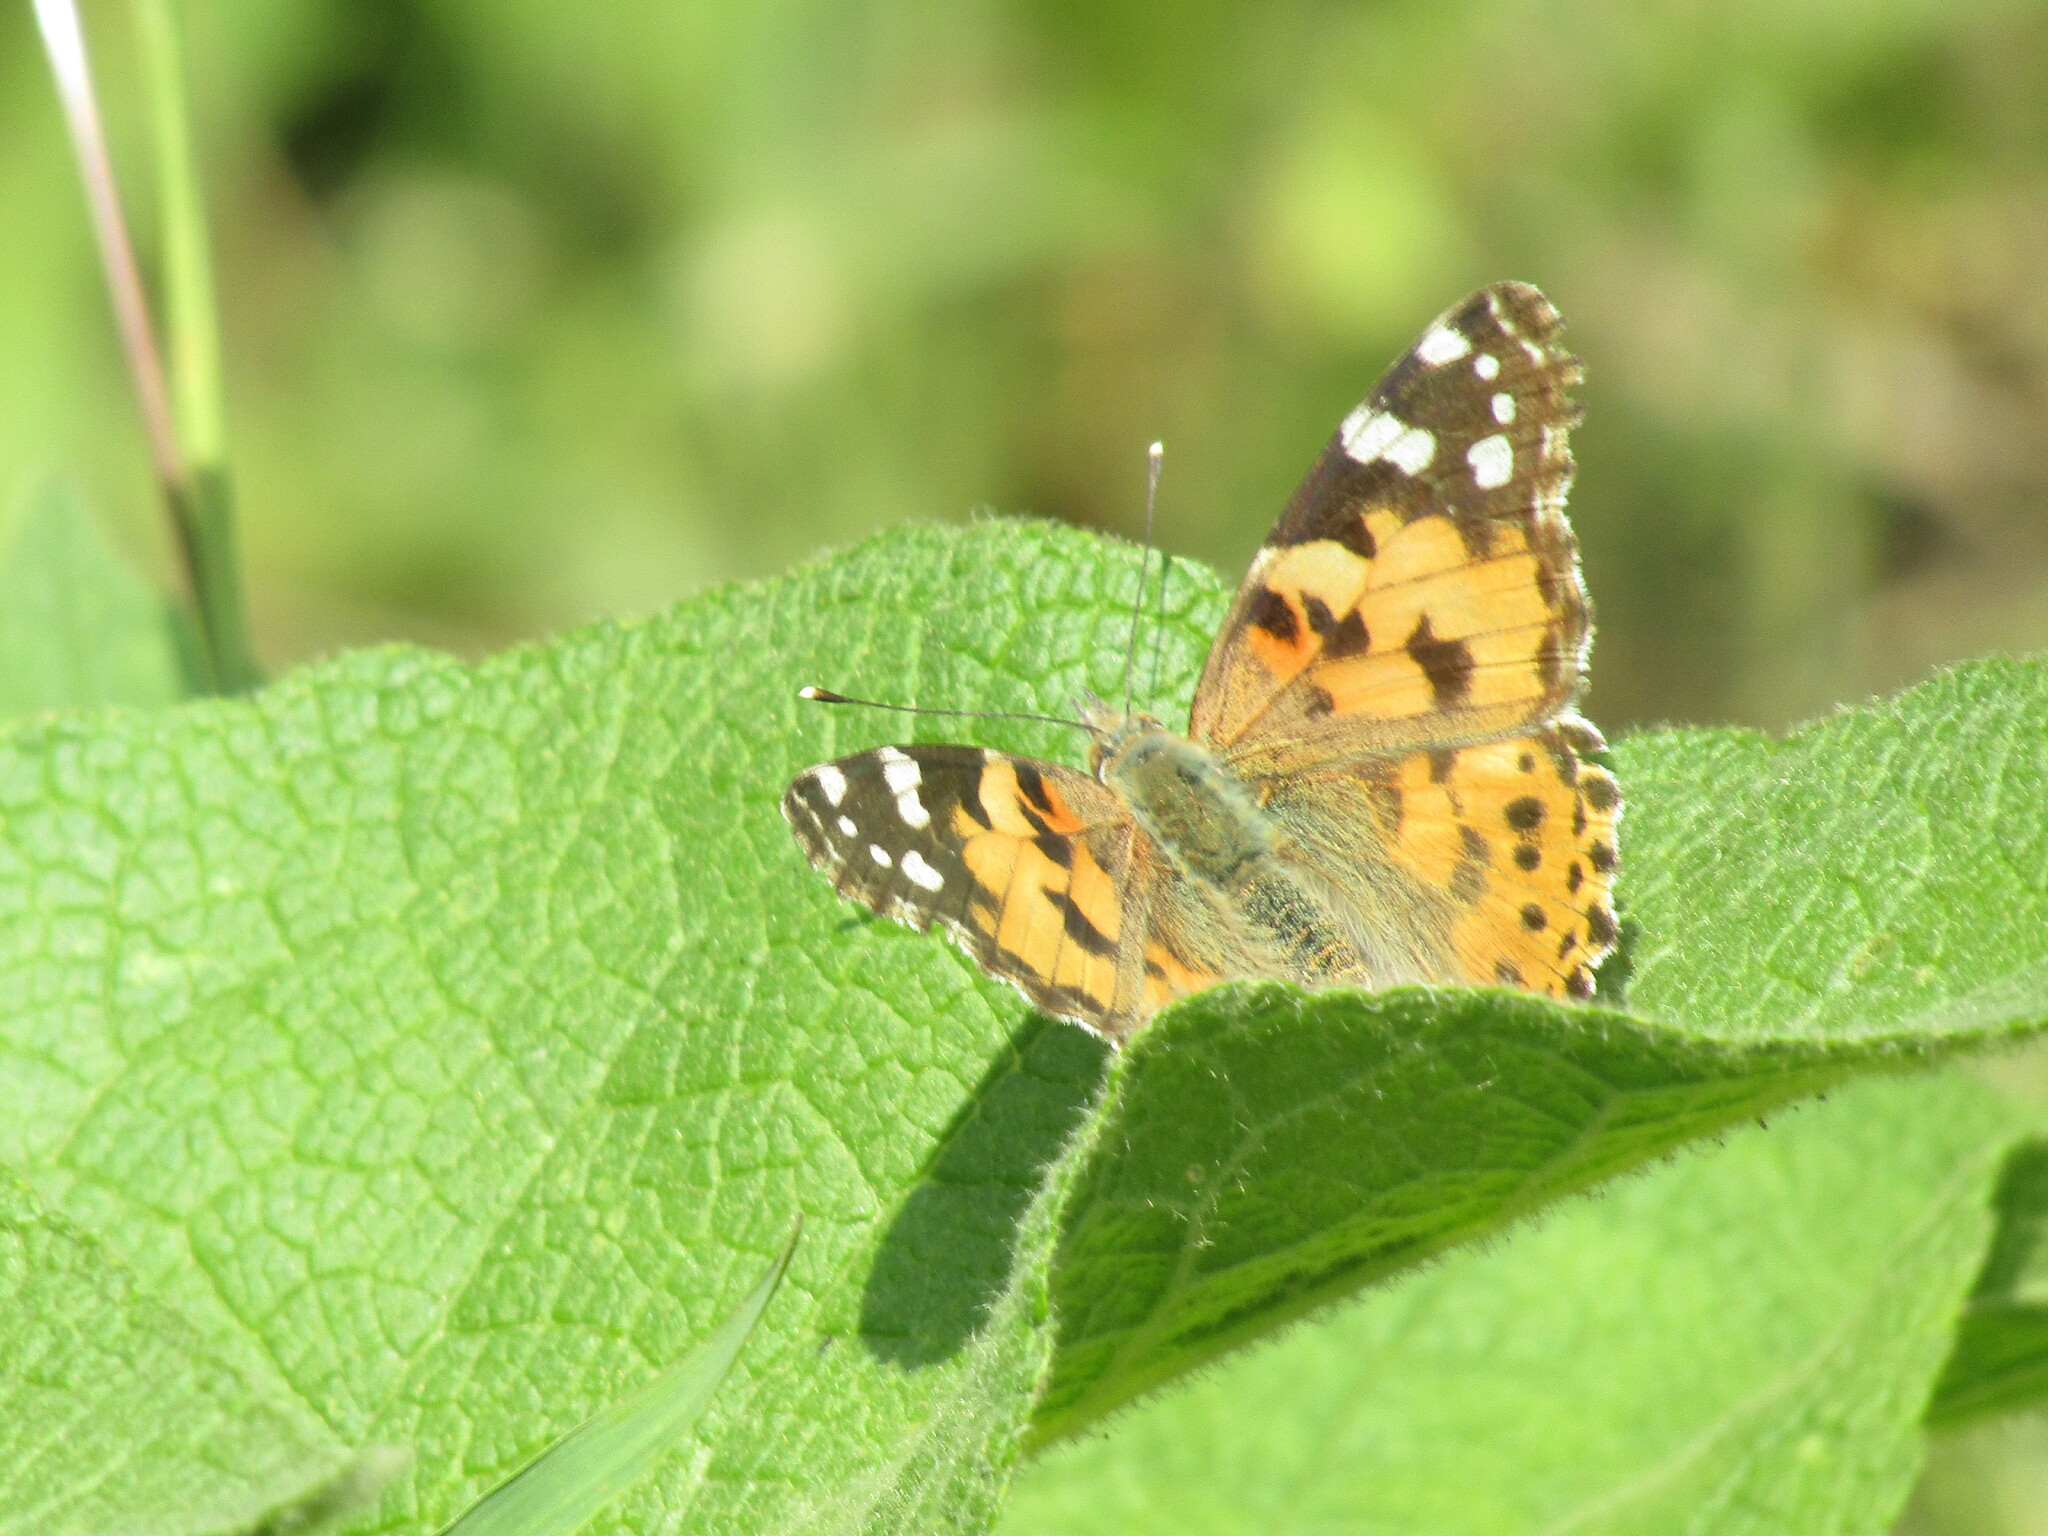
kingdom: Animalia
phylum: Arthropoda
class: Insecta
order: Lepidoptera
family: Nymphalidae
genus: Vanessa
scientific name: Vanessa cardui
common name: Painted lady
